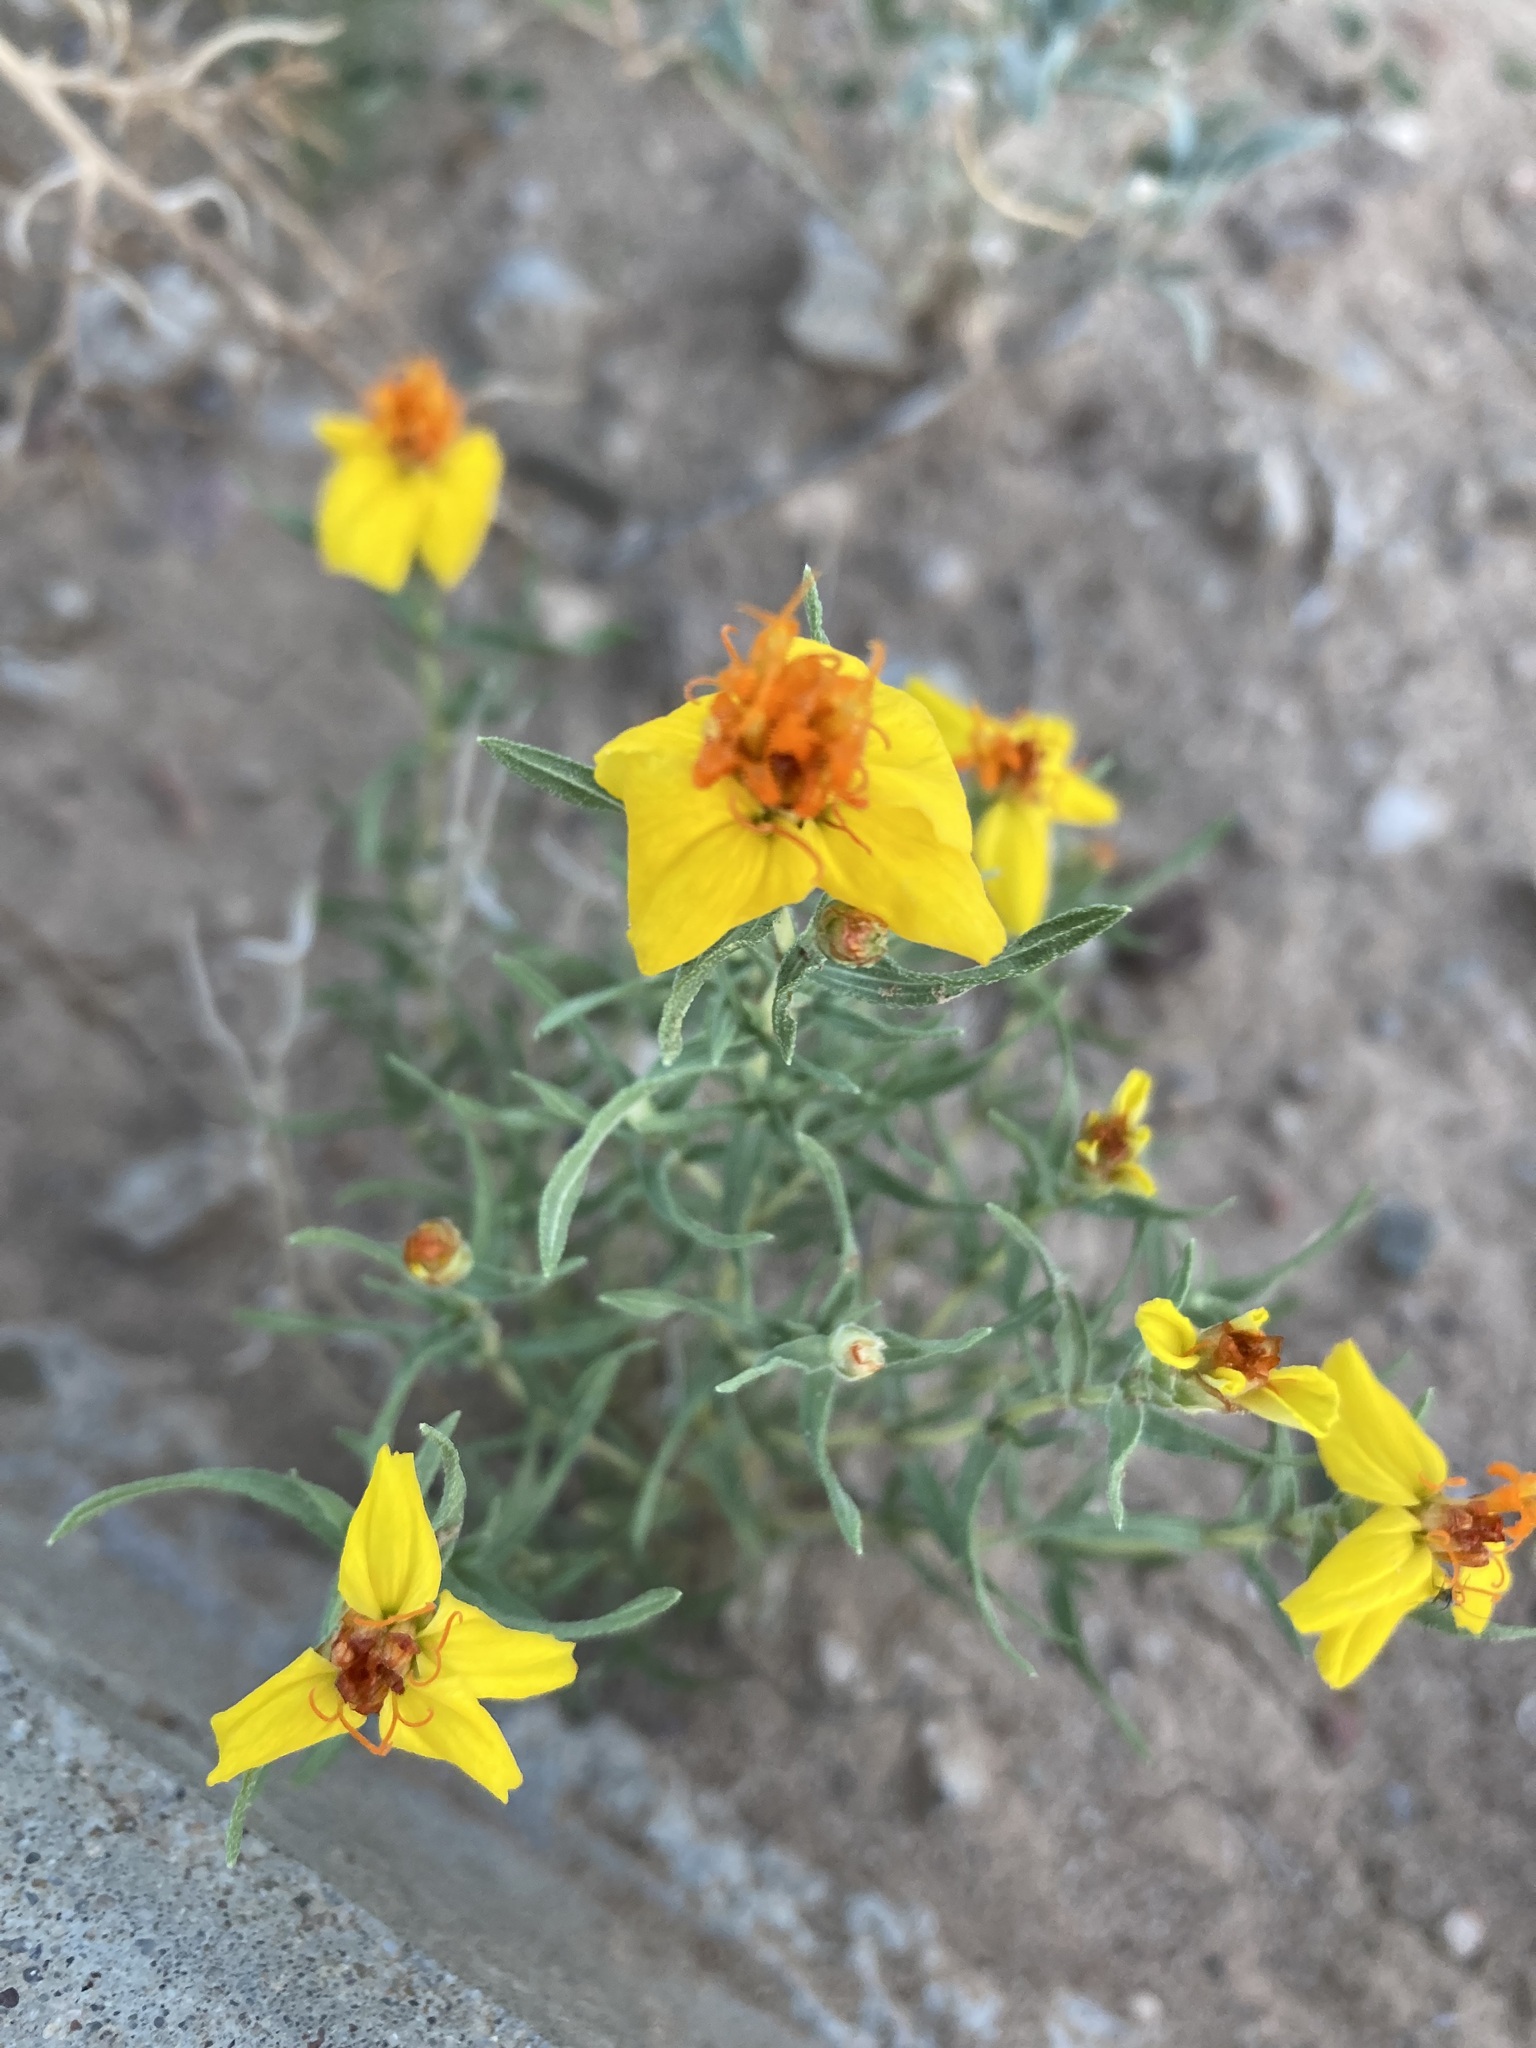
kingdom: Plantae
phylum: Tracheophyta
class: Magnoliopsida
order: Asterales
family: Asteraceae
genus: Zinnia
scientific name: Zinnia grandiflora
